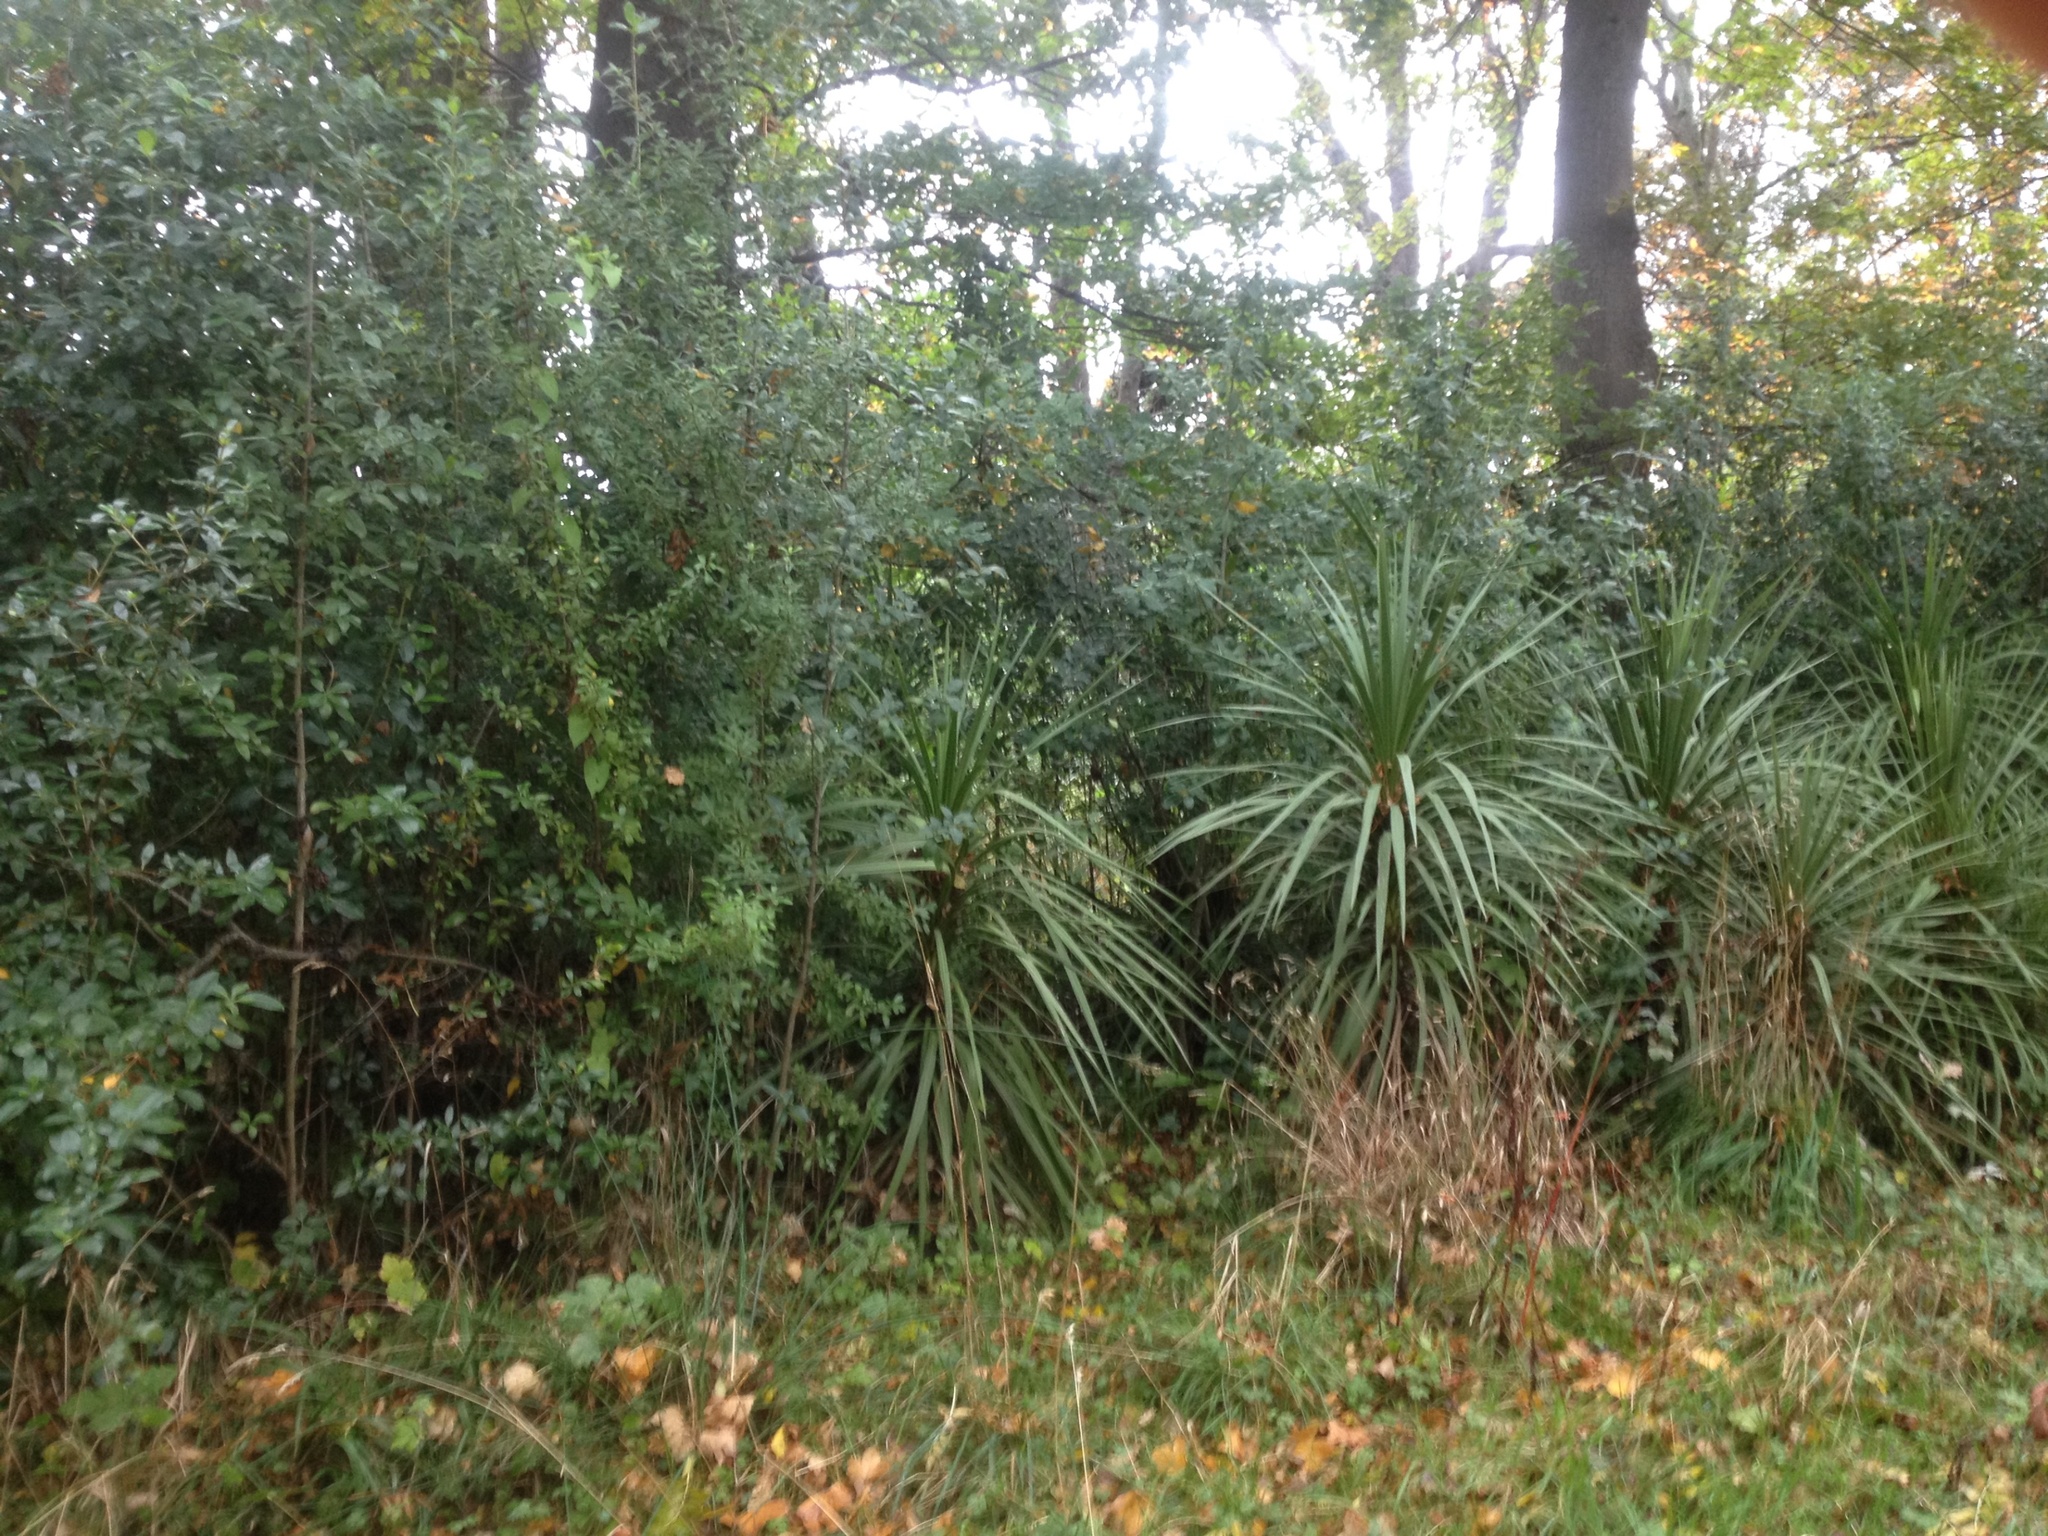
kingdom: Plantae
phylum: Tracheophyta
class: Liliopsida
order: Asparagales
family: Asparagaceae
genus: Cordyline
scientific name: Cordyline australis
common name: Cabbage-palm
